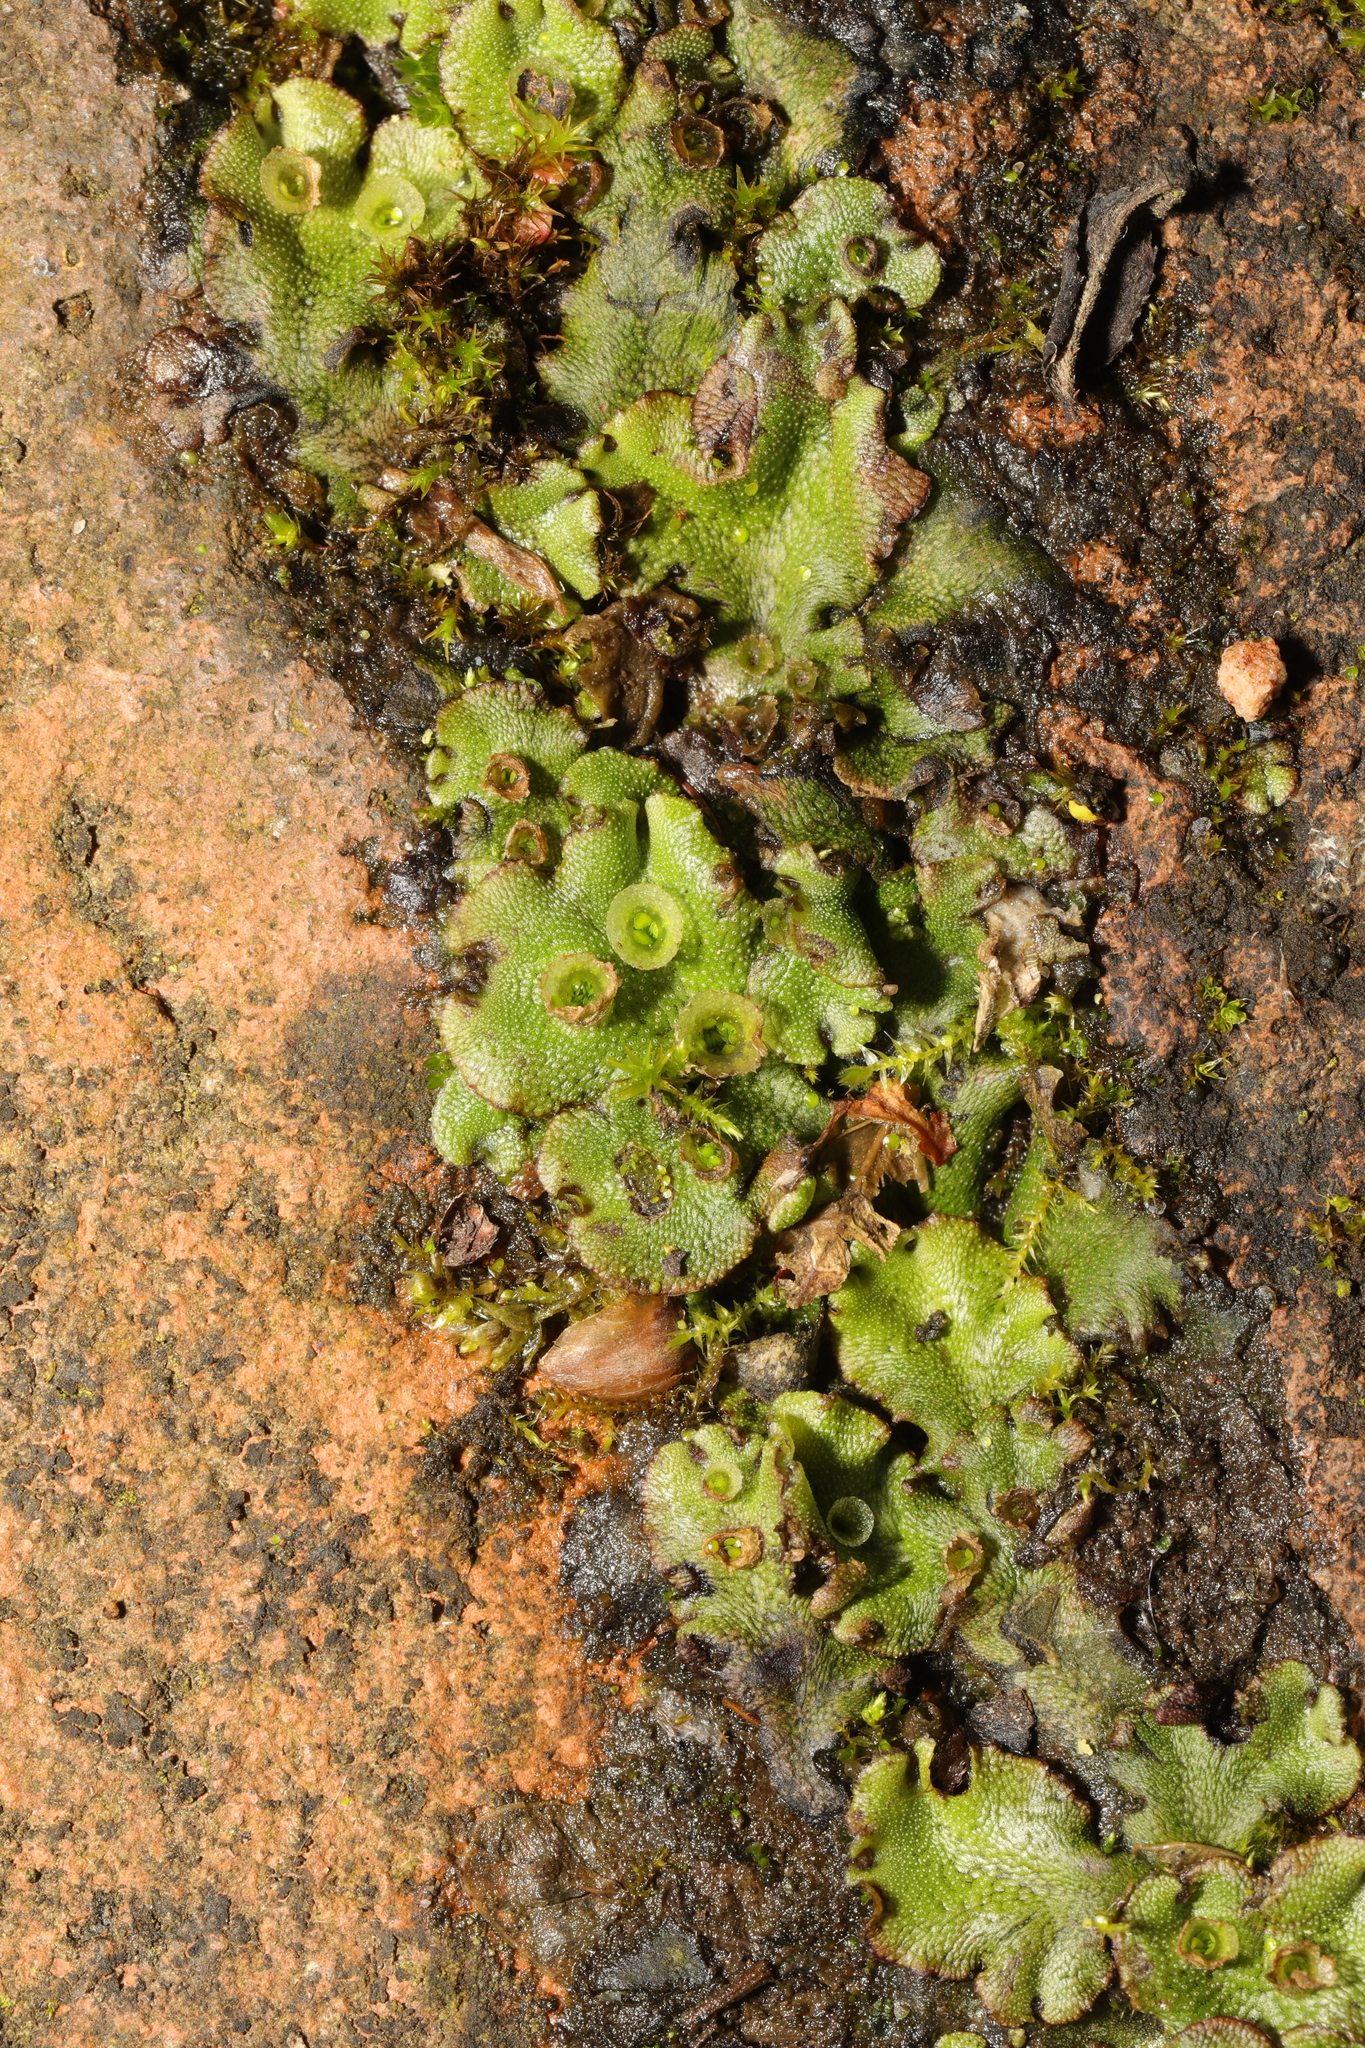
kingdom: Plantae
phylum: Marchantiophyta
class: Marchantiopsida
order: Marchantiales
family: Marchantiaceae
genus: Marchantia
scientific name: Marchantia polymorpha
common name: Common liverwort
